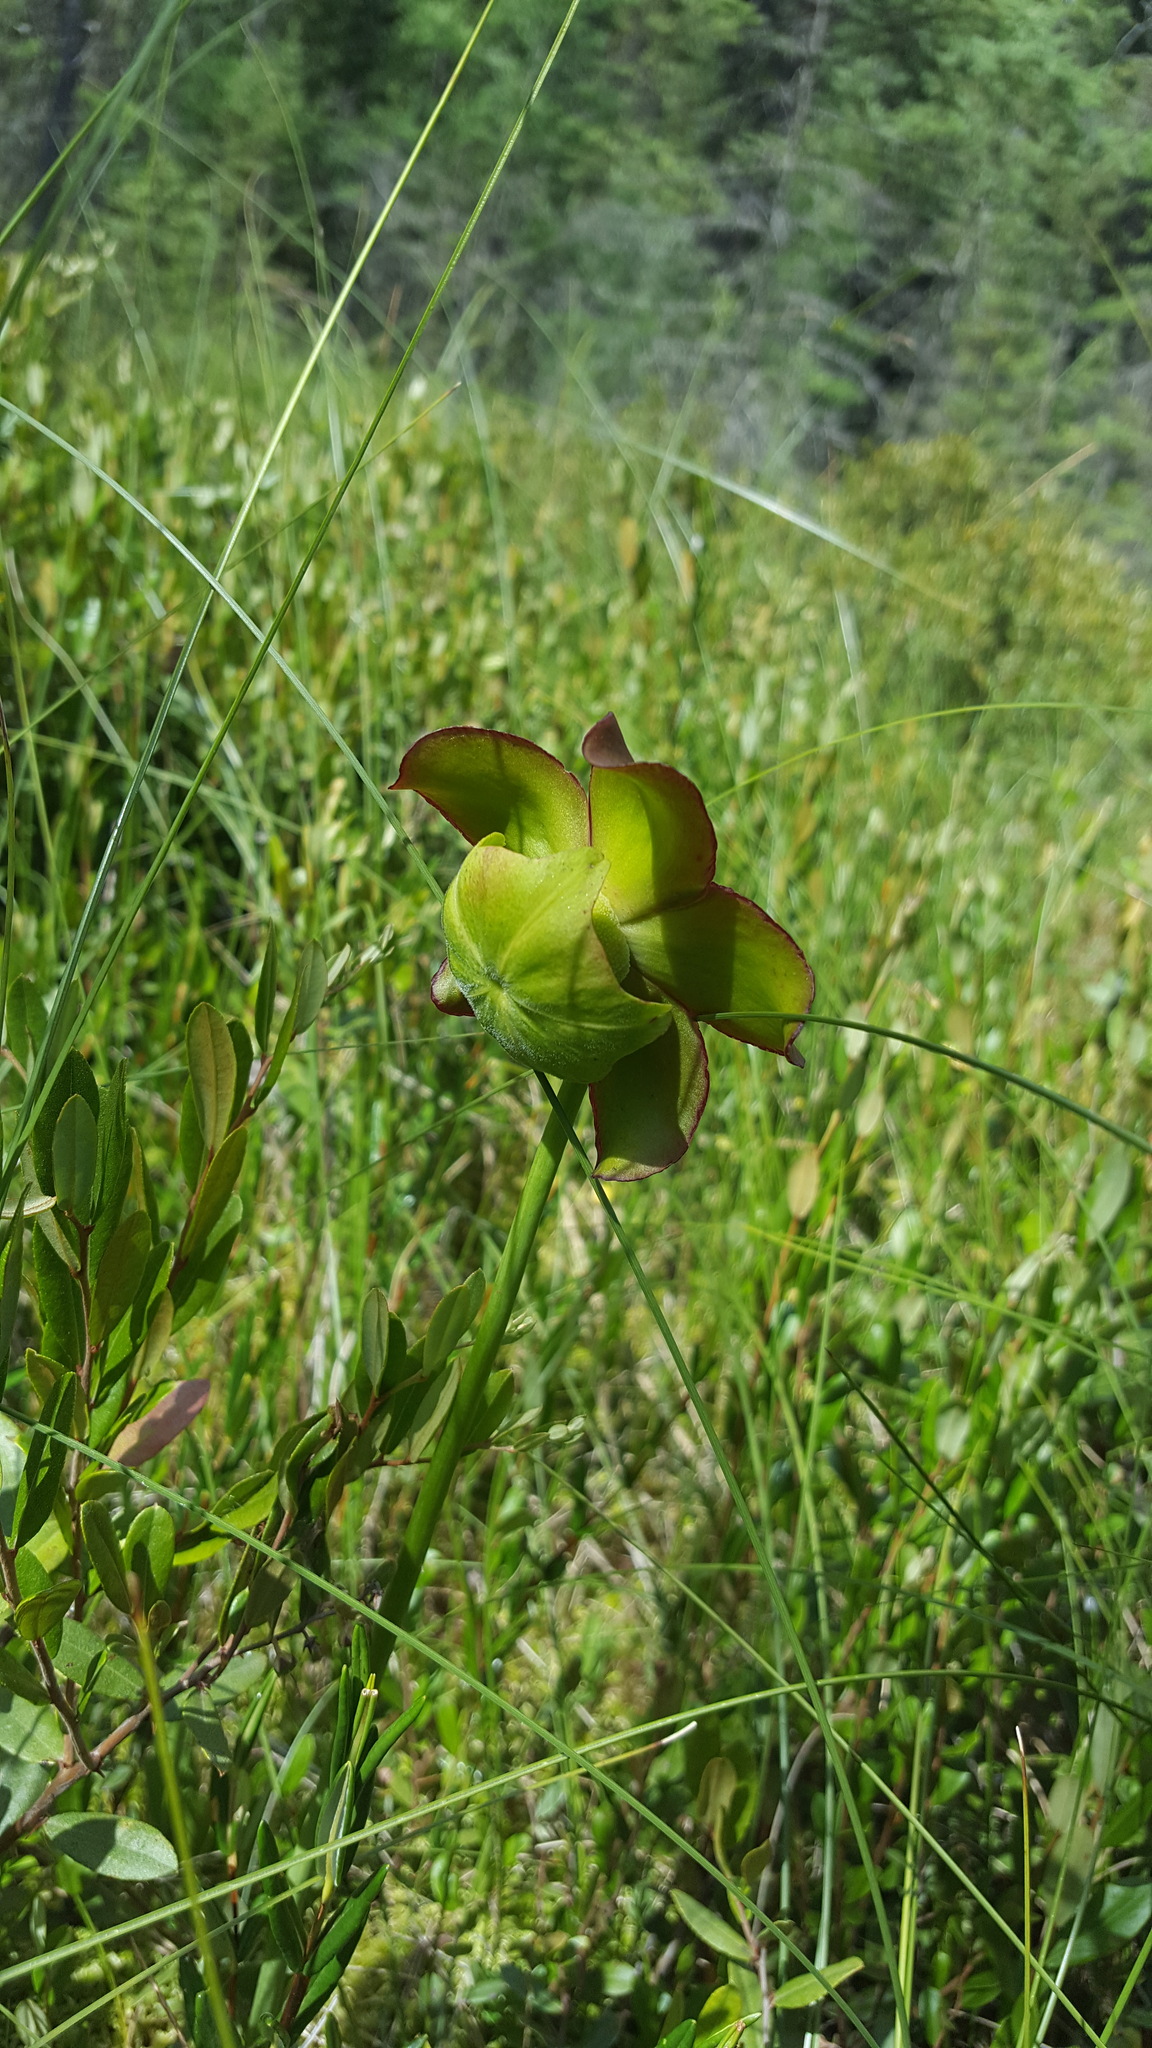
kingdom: Plantae
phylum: Tracheophyta
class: Magnoliopsida
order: Ericales
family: Sarraceniaceae
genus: Sarracenia
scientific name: Sarracenia purpurea
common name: Pitcherplant
